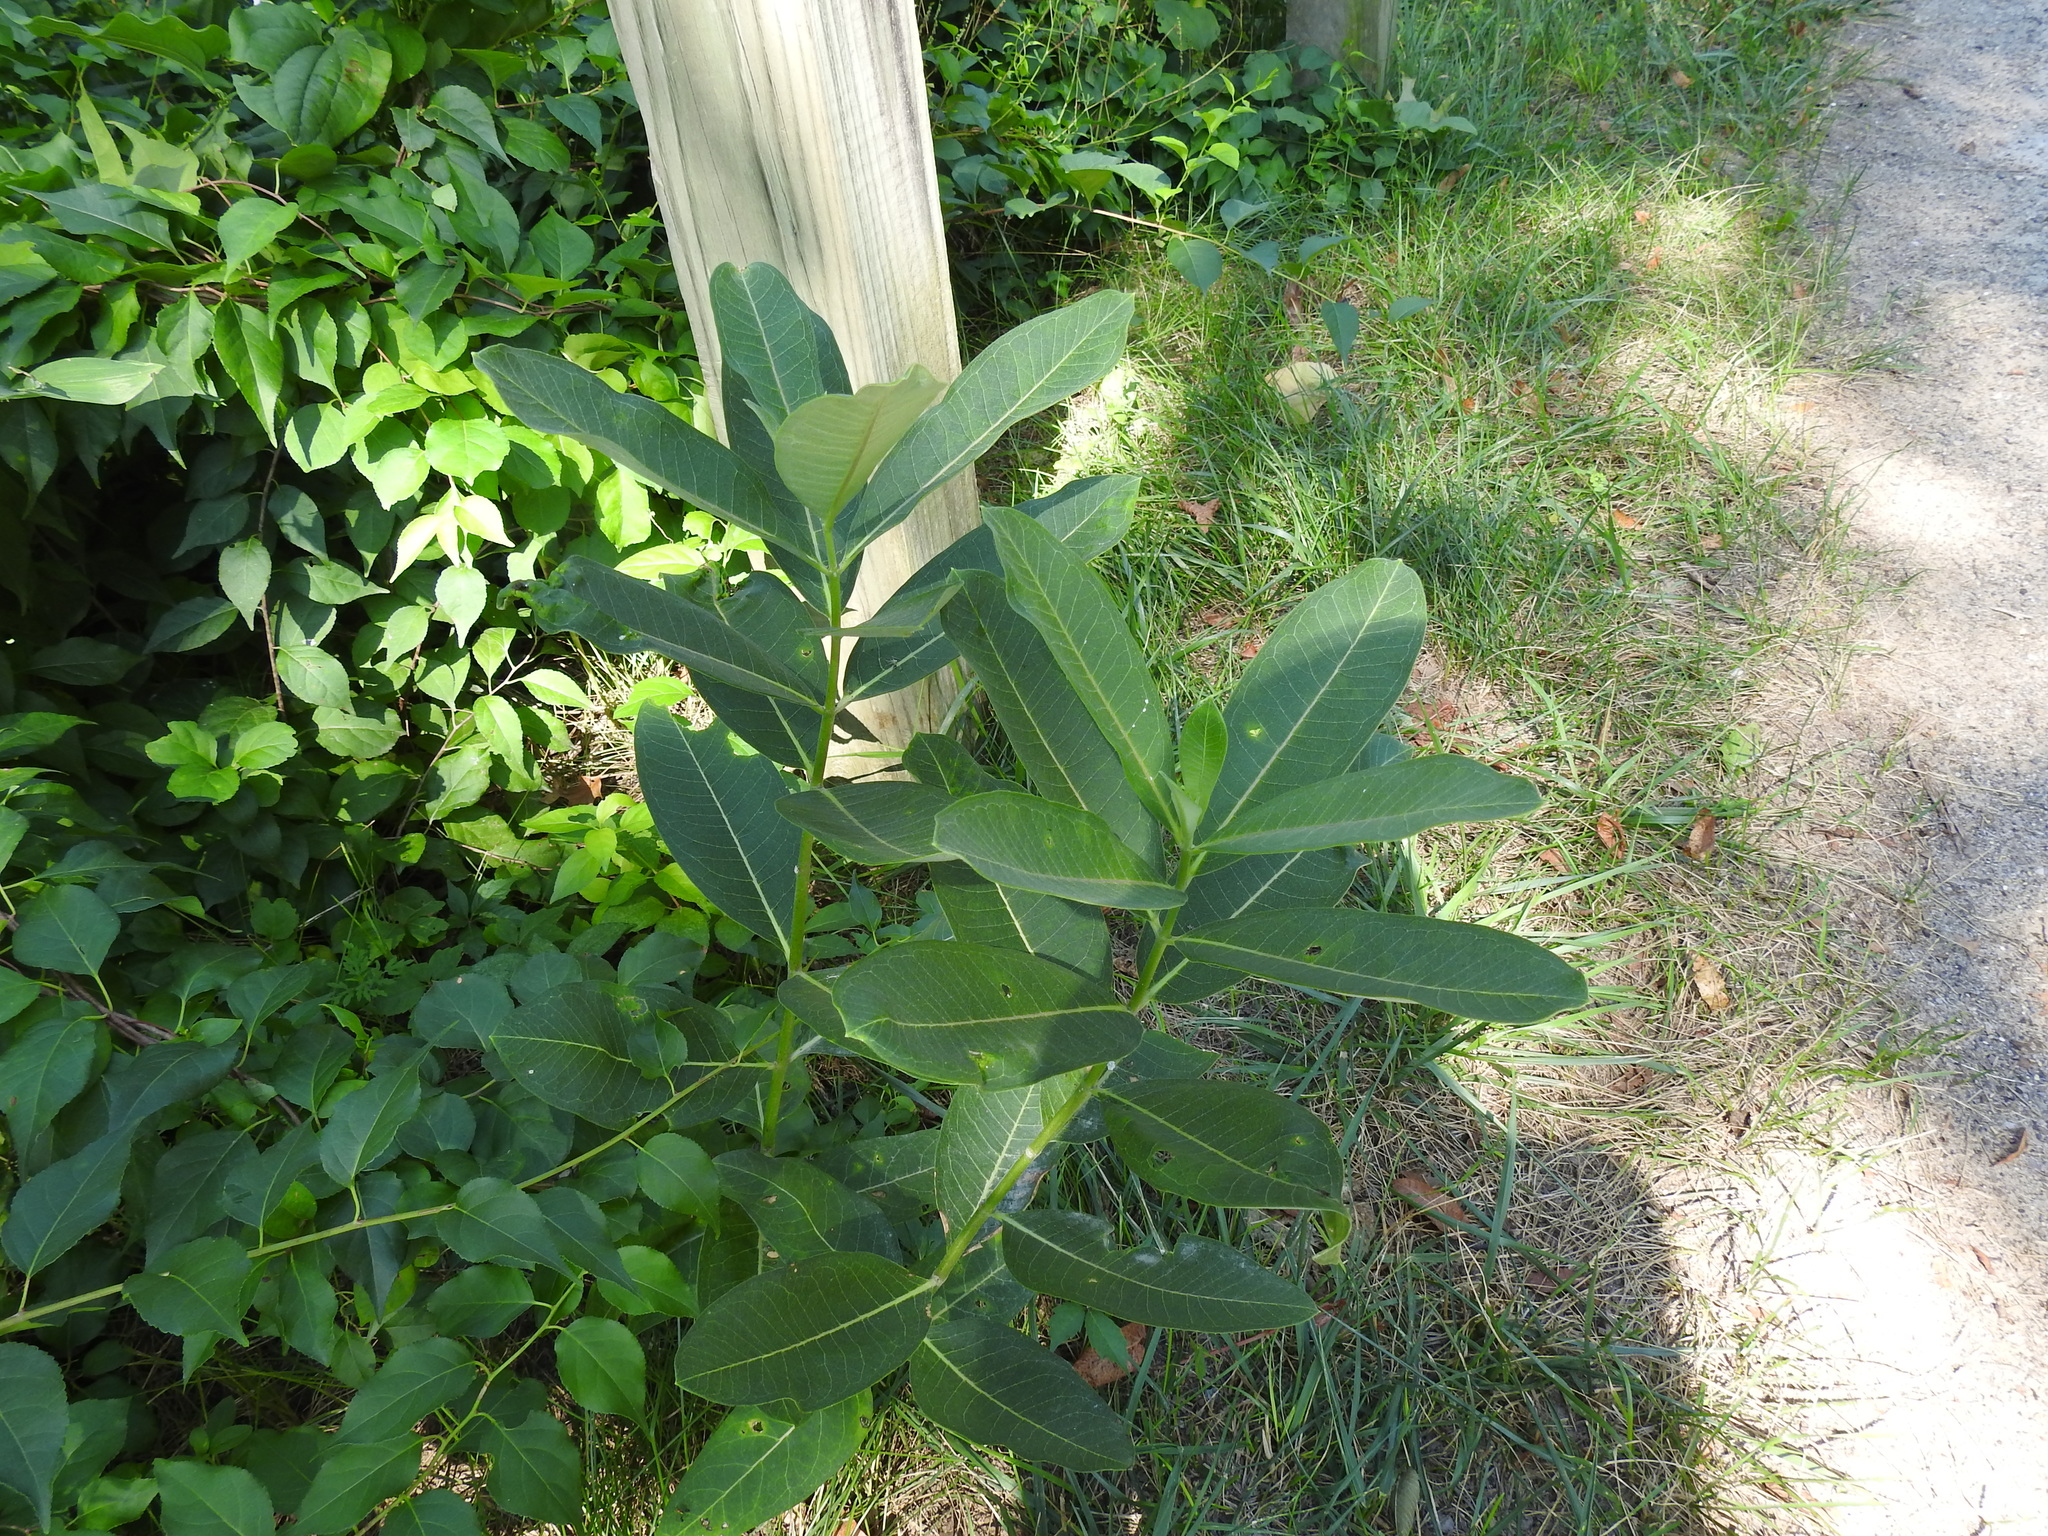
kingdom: Plantae
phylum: Tracheophyta
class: Magnoliopsida
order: Gentianales
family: Apocynaceae
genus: Asclepias
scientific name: Asclepias syriaca
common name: Common milkweed
